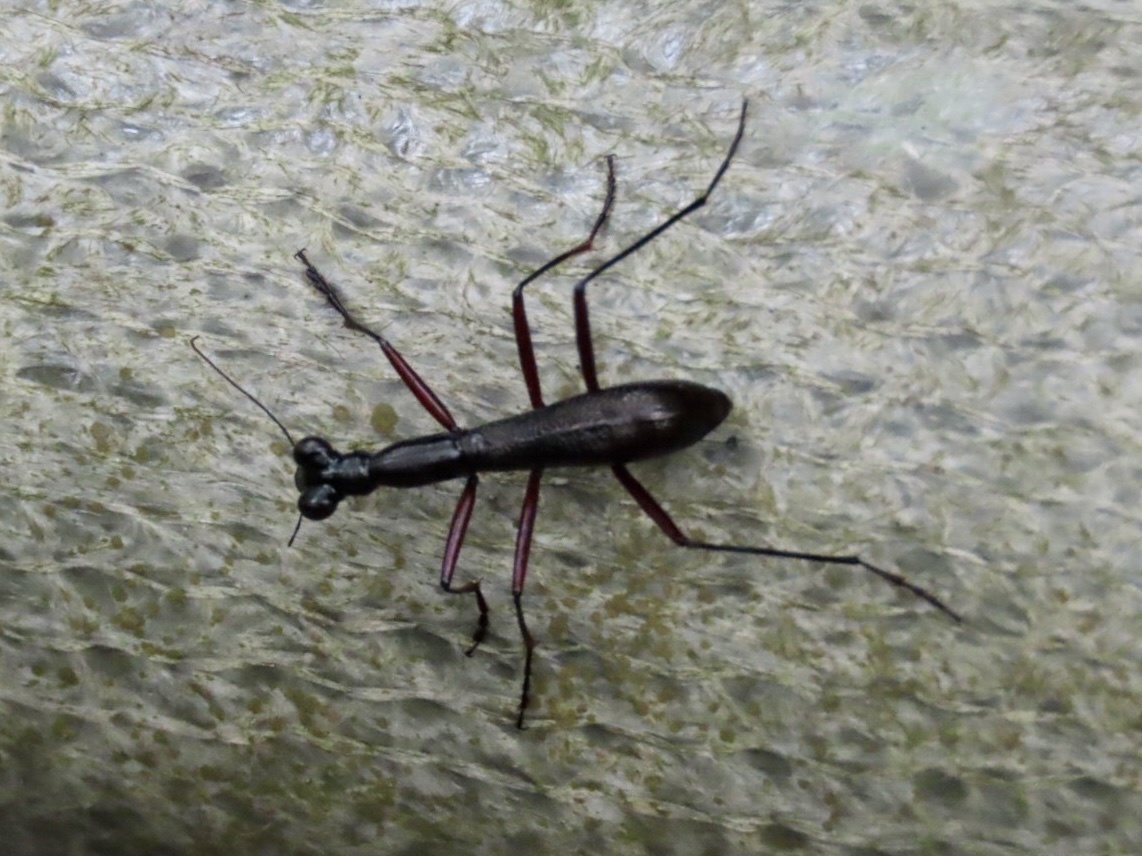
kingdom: Animalia
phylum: Arthropoda
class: Insecta
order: Coleoptera
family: Carabidae
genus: Tricondyla
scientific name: Tricondyla pulchripes
